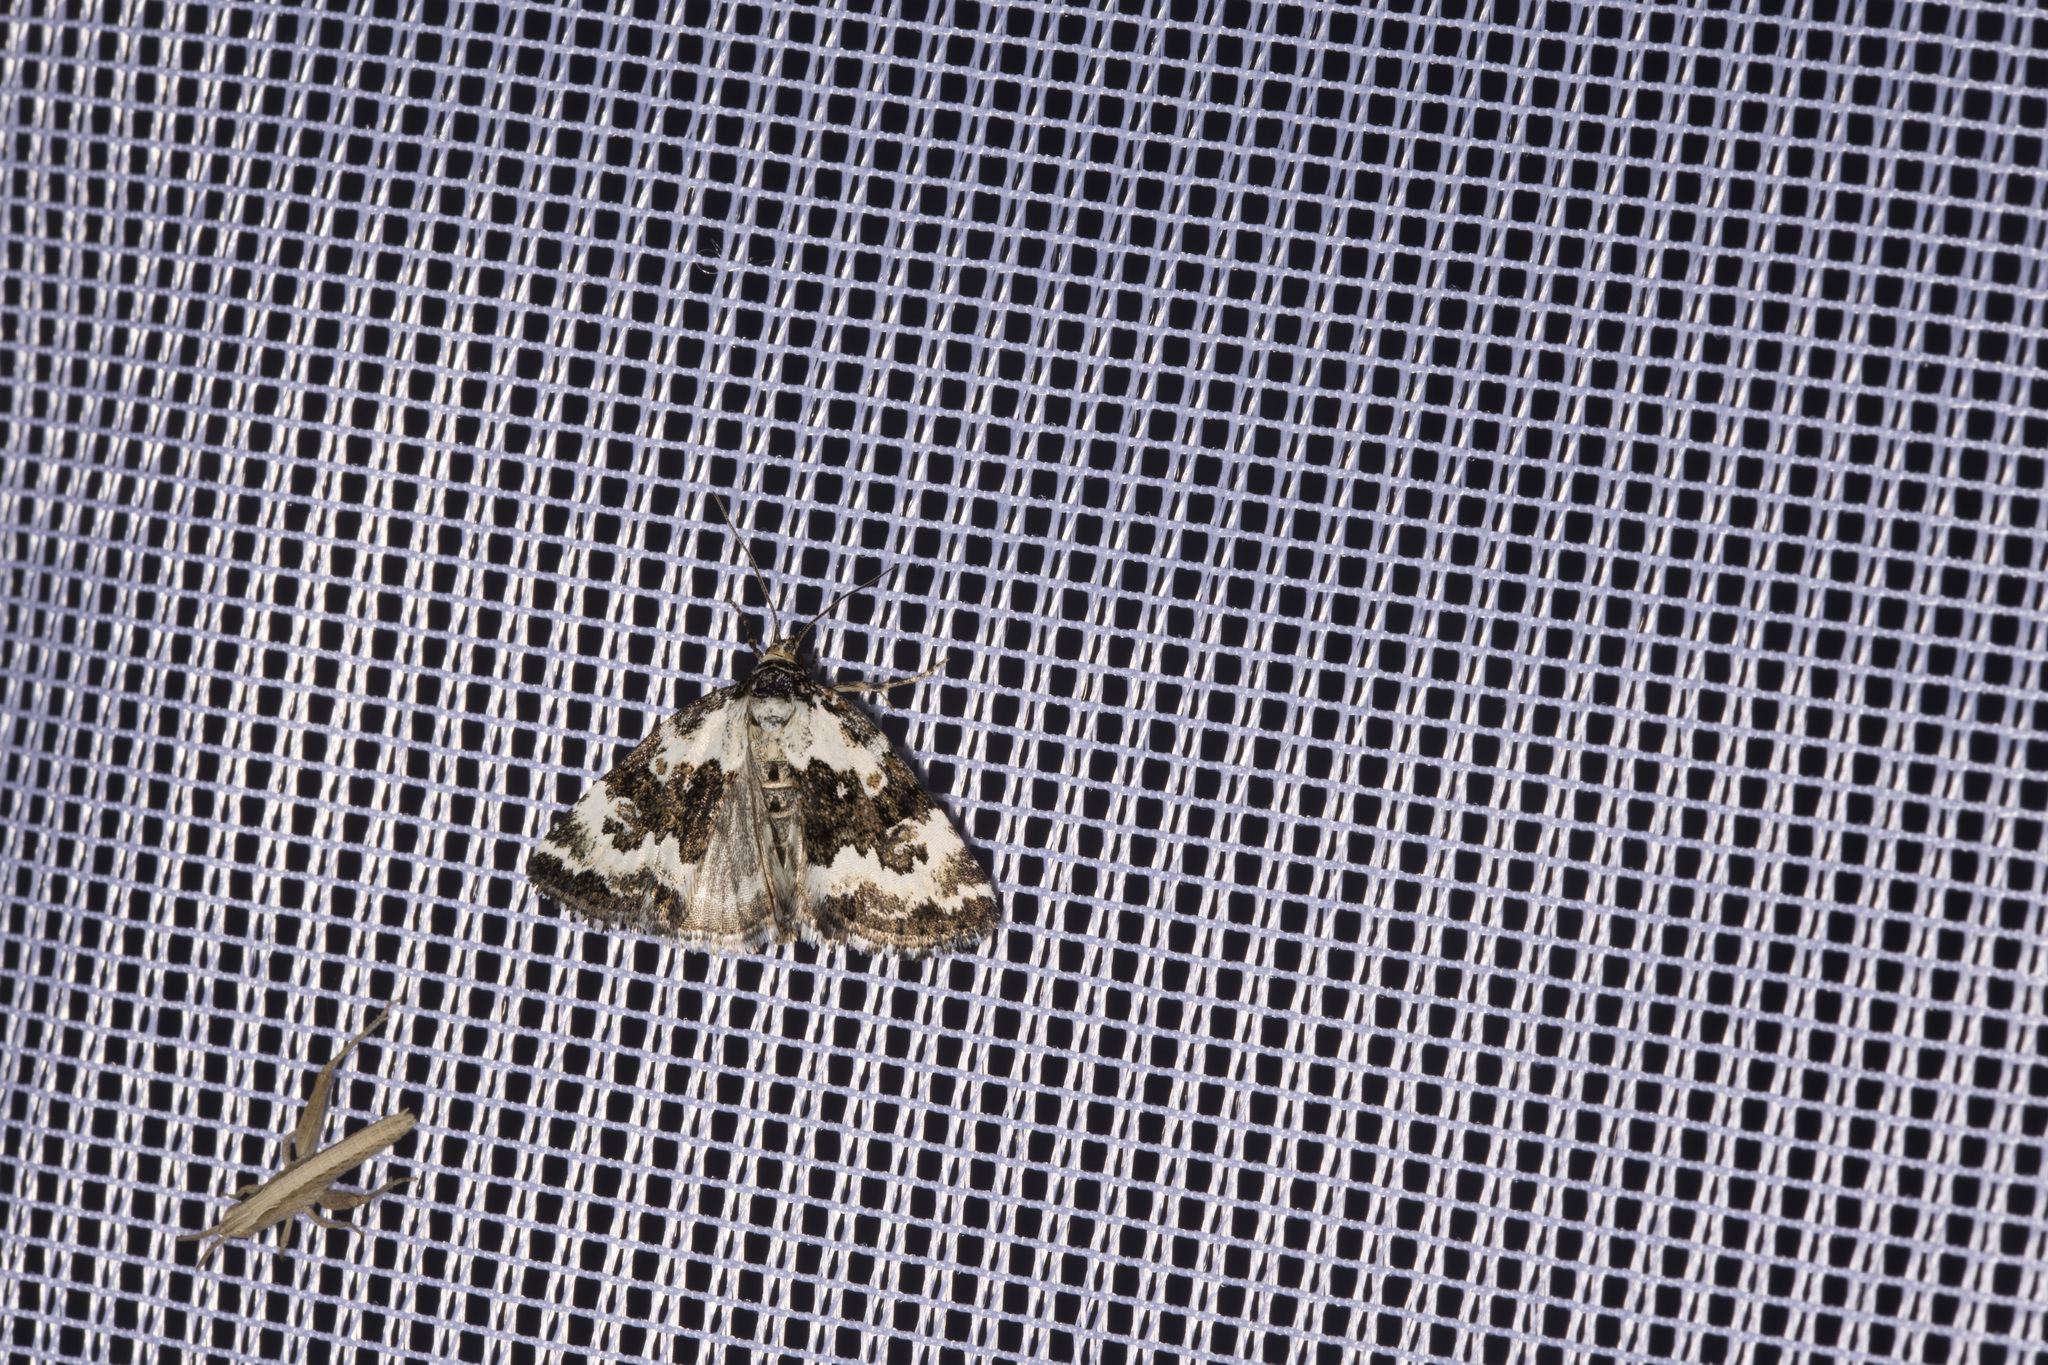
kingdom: Animalia
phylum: Arthropoda
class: Insecta
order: Lepidoptera
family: Noctuidae
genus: Deltote
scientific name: Deltote deceptoria
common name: Pretty marbled
